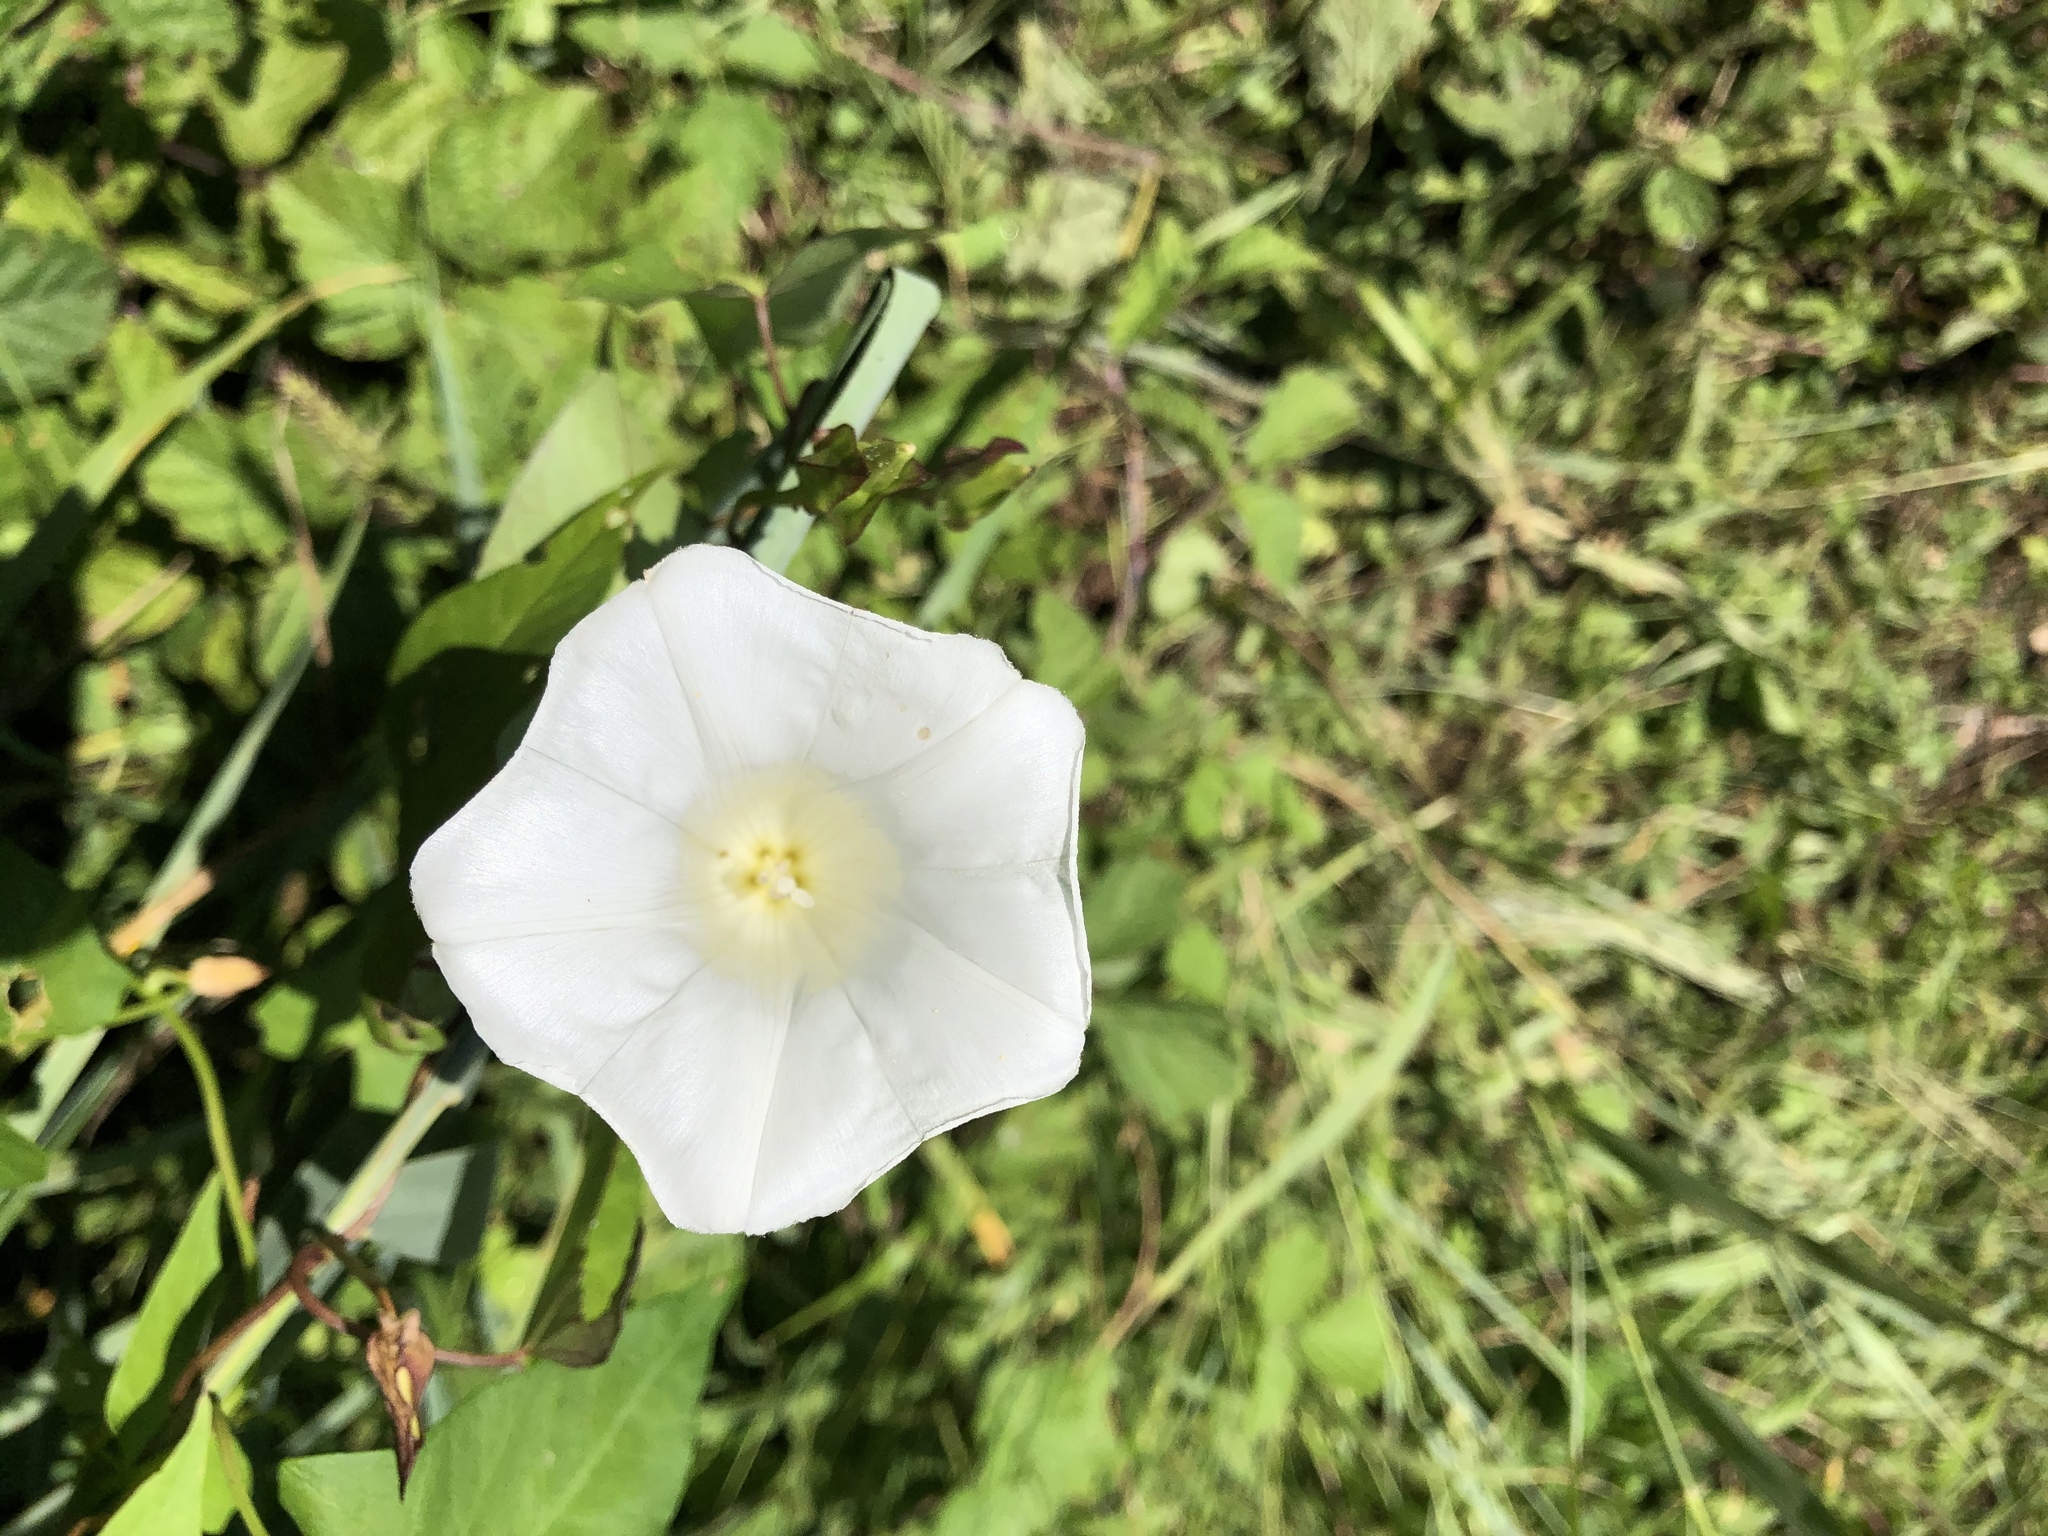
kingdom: Plantae
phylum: Tracheophyta
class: Magnoliopsida
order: Solanales
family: Convolvulaceae
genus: Calystegia
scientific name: Calystegia sepium
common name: Hedge bindweed
